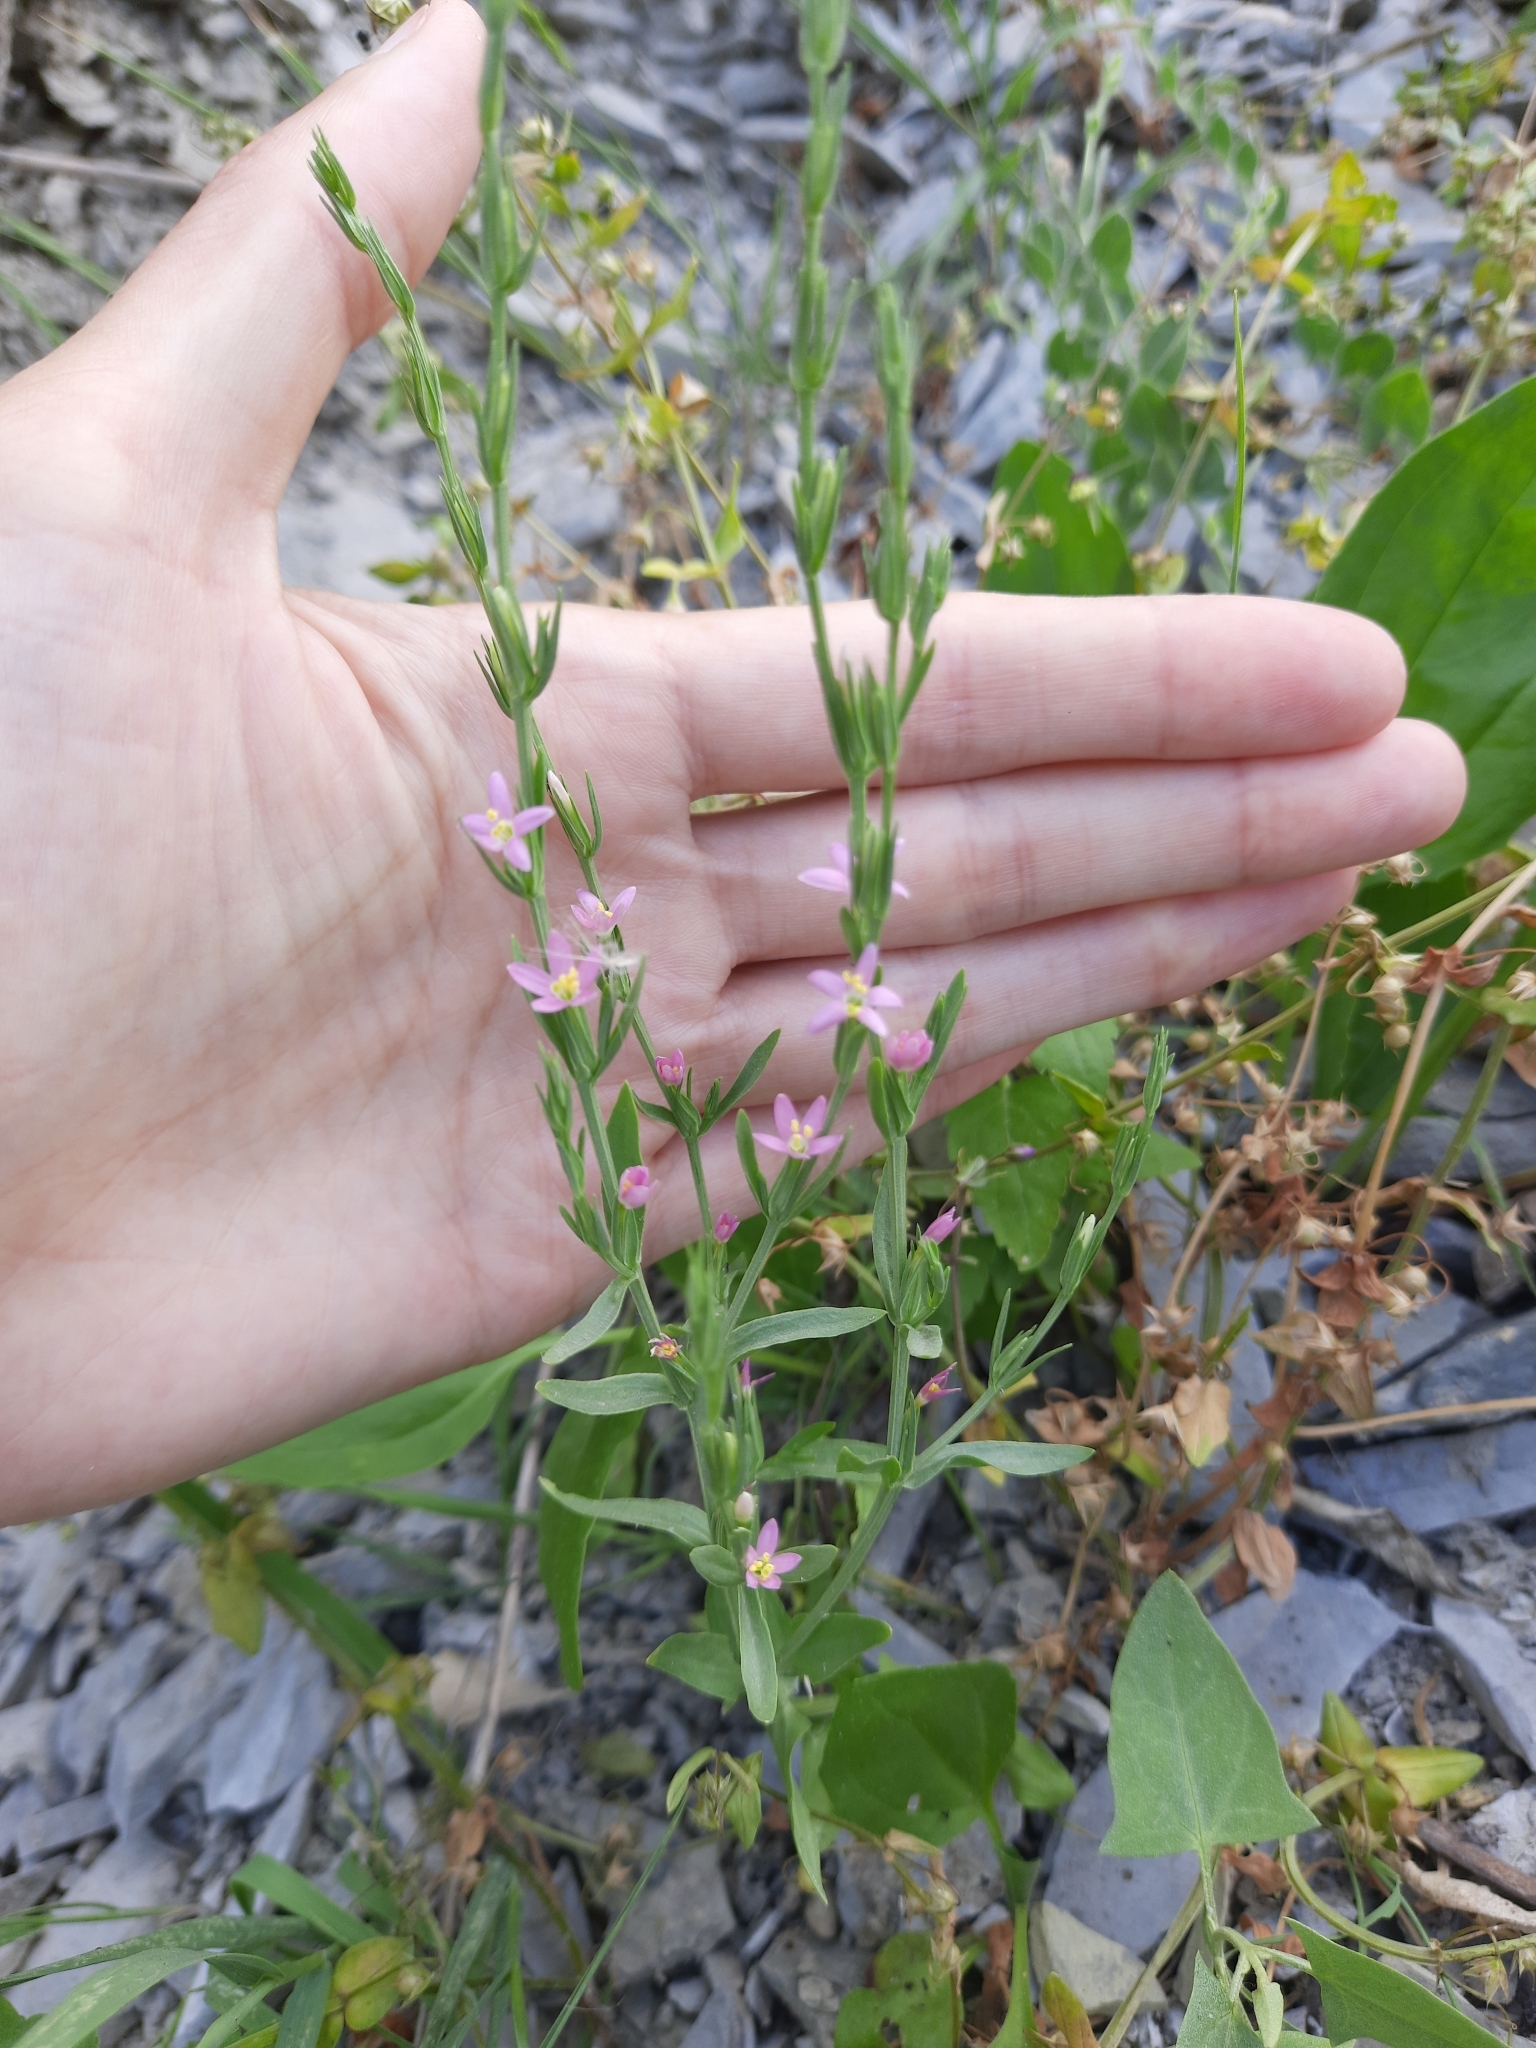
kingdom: Plantae
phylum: Tracheophyta
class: Magnoliopsida
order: Gentianales
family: Gentianaceae
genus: Schenkia
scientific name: Schenkia spicata
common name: Spiked centaury
